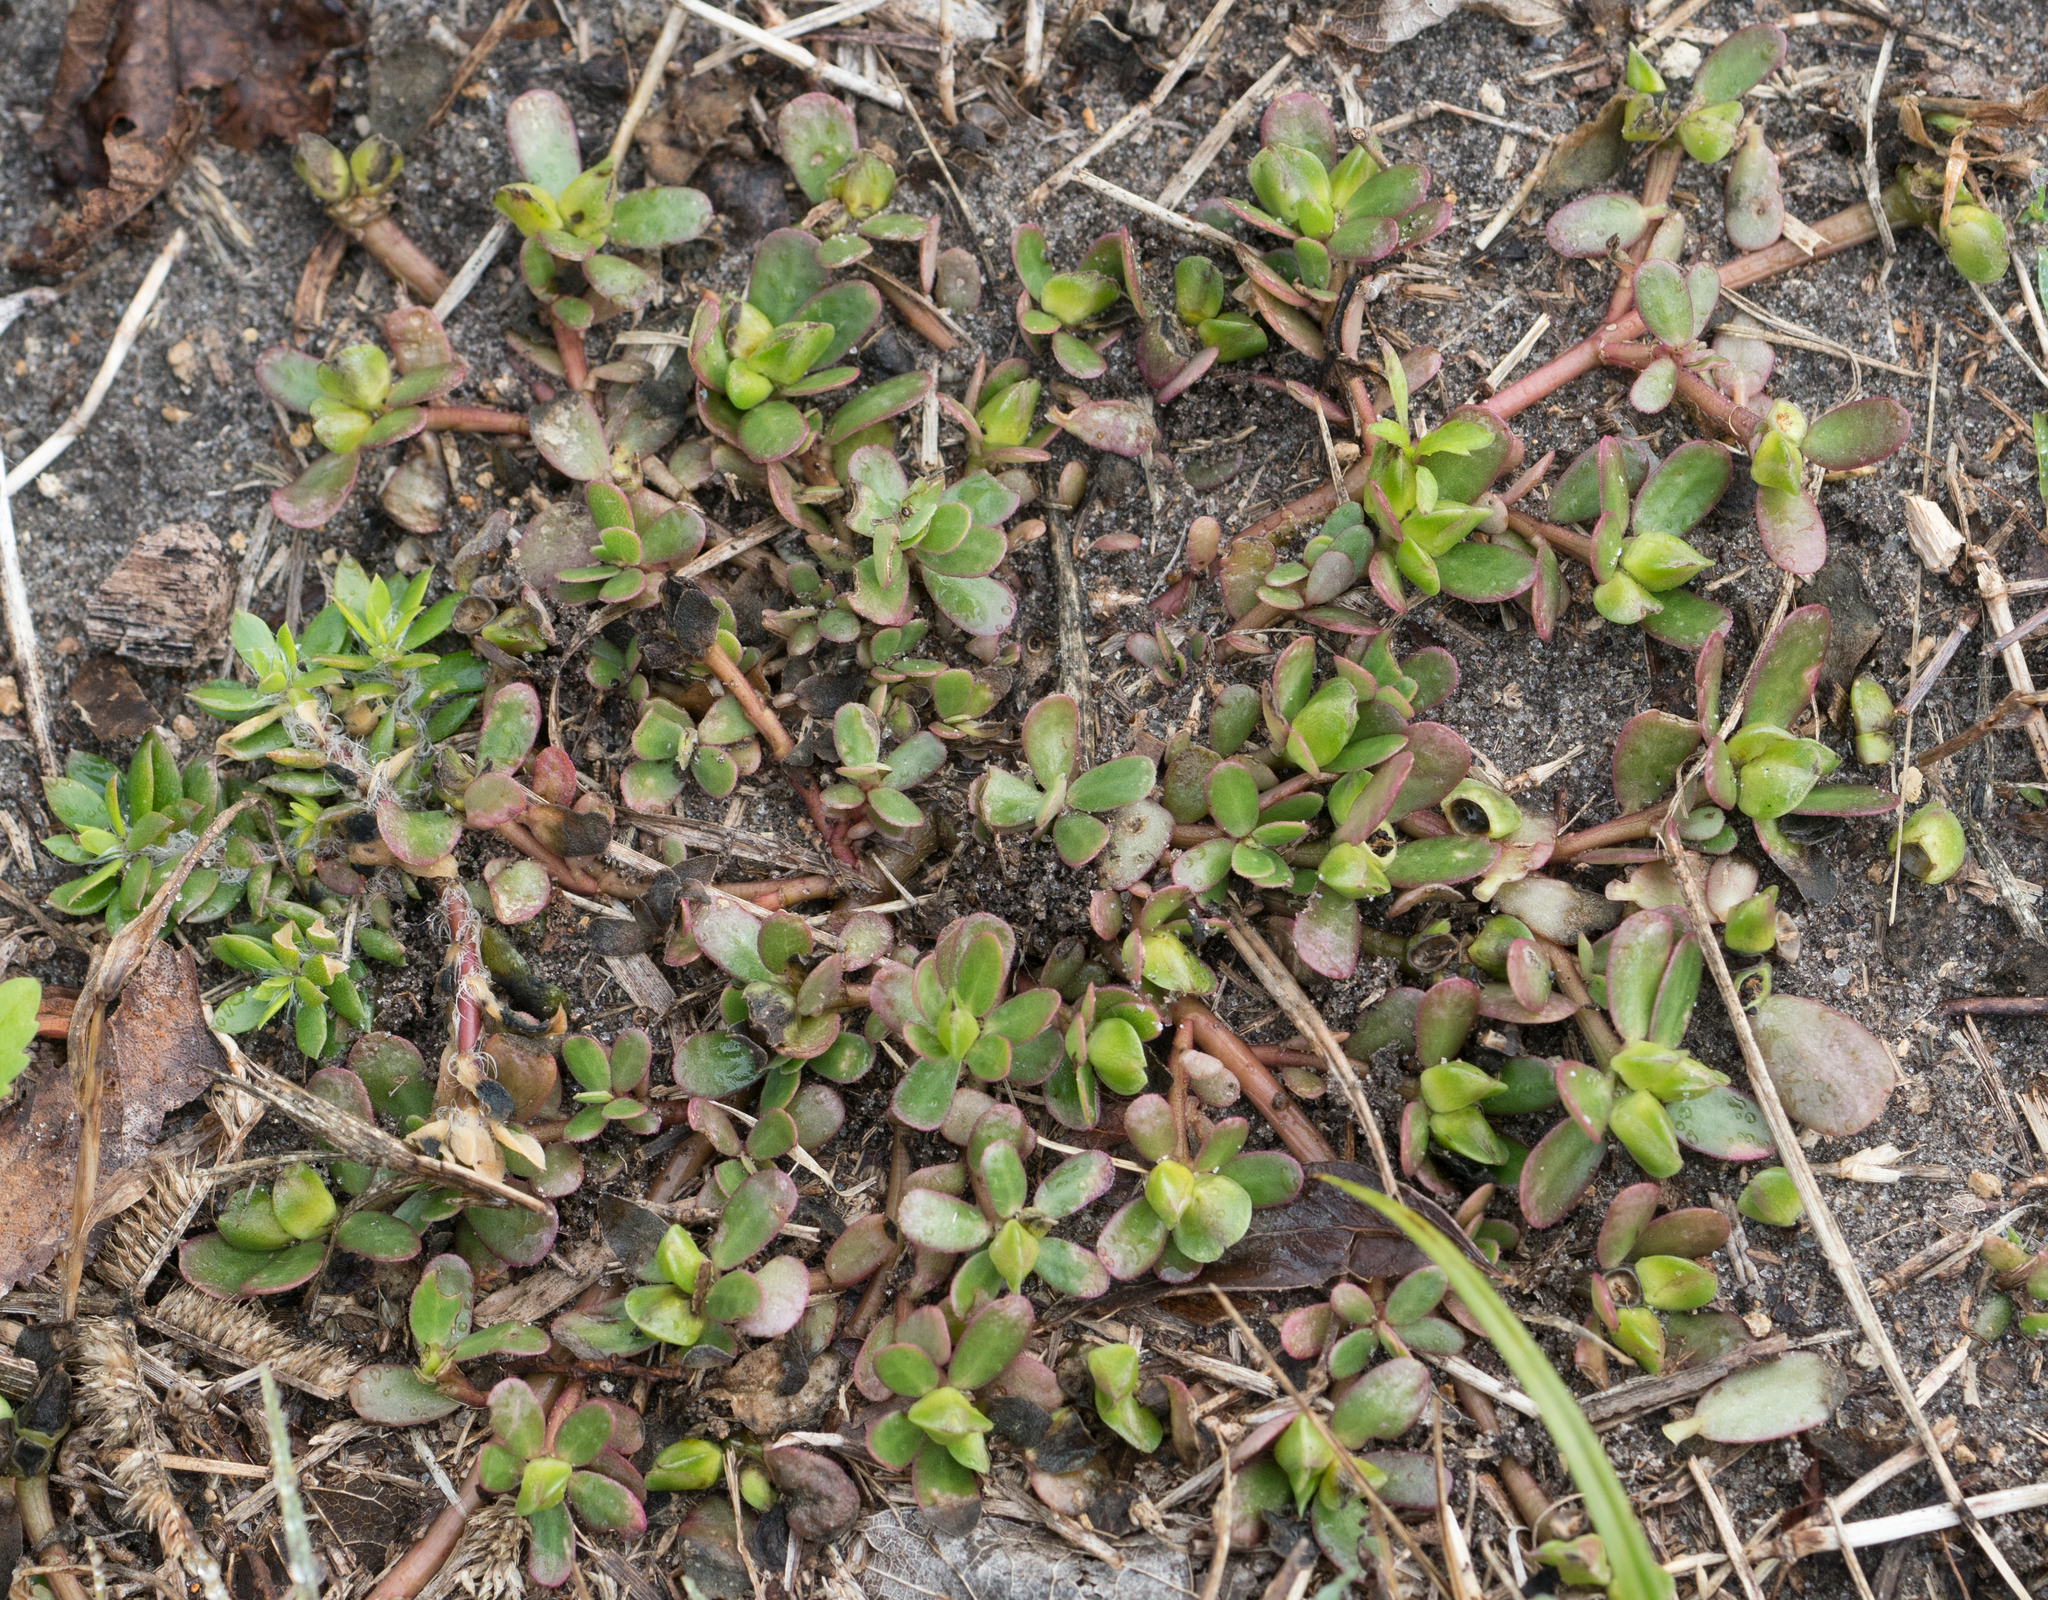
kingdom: Plantae
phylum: Tracheophyta
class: Magnoliopsida
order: Caryophyllales
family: Portulacaceae
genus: Portulaca
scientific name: Portulaca oleracea
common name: Common purslane
